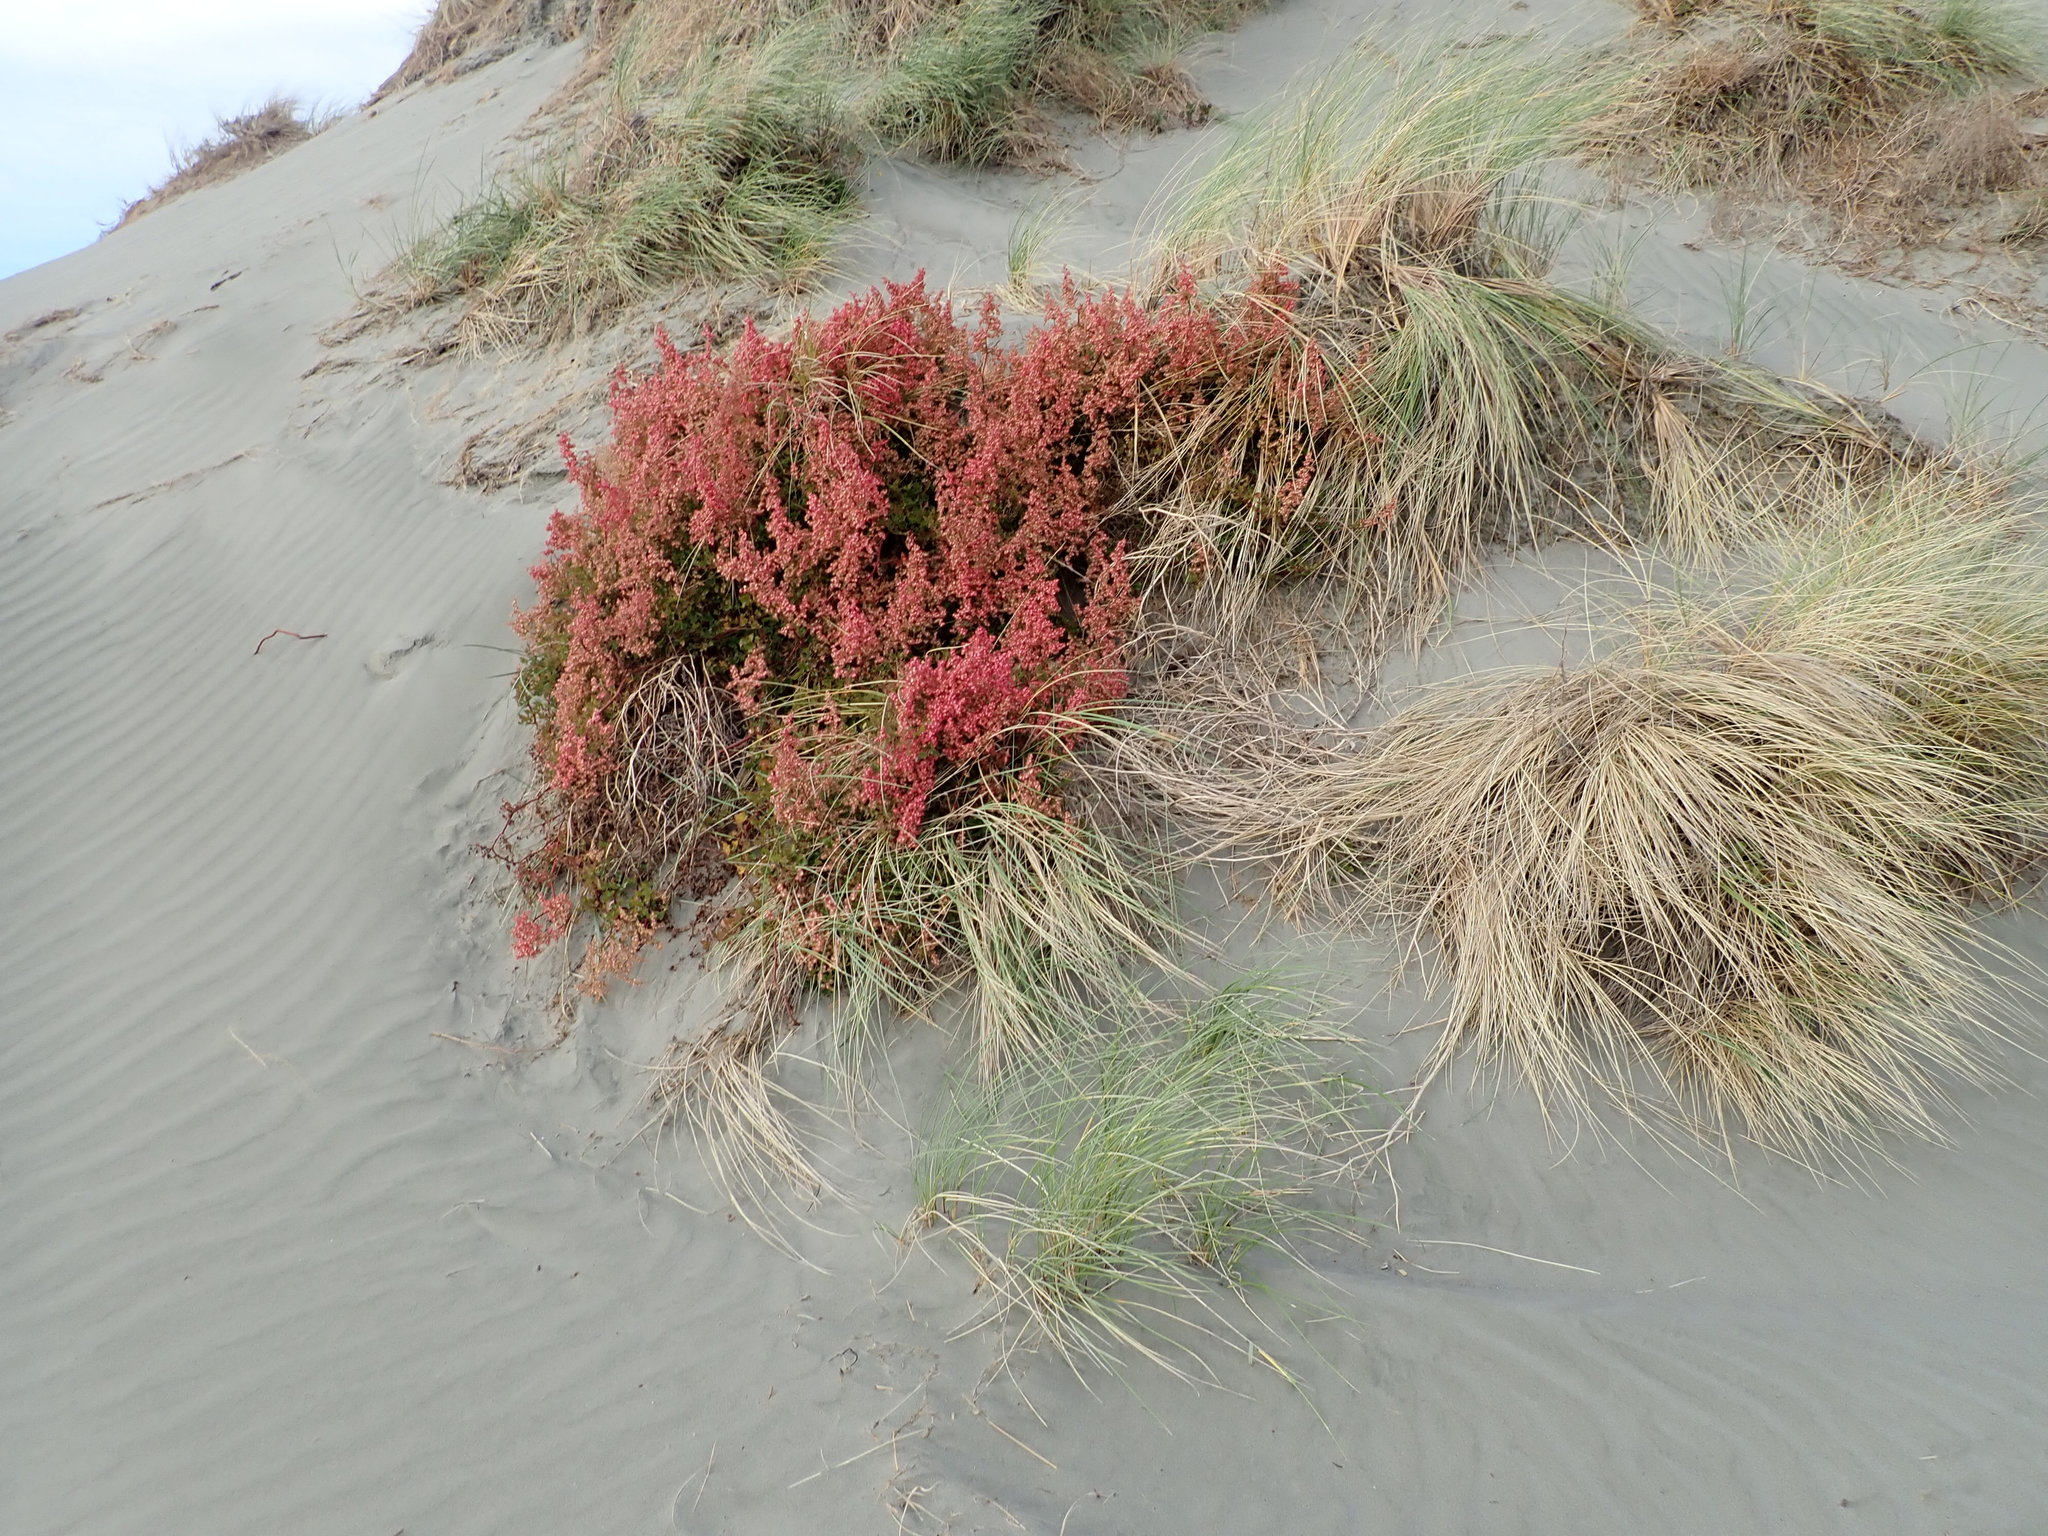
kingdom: Plantae
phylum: Tracheophyta
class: Magnoliopsida
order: Caryophyllales
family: Polygonaceae
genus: Rumex
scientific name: Rumex sagittatus
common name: Climbing dock
